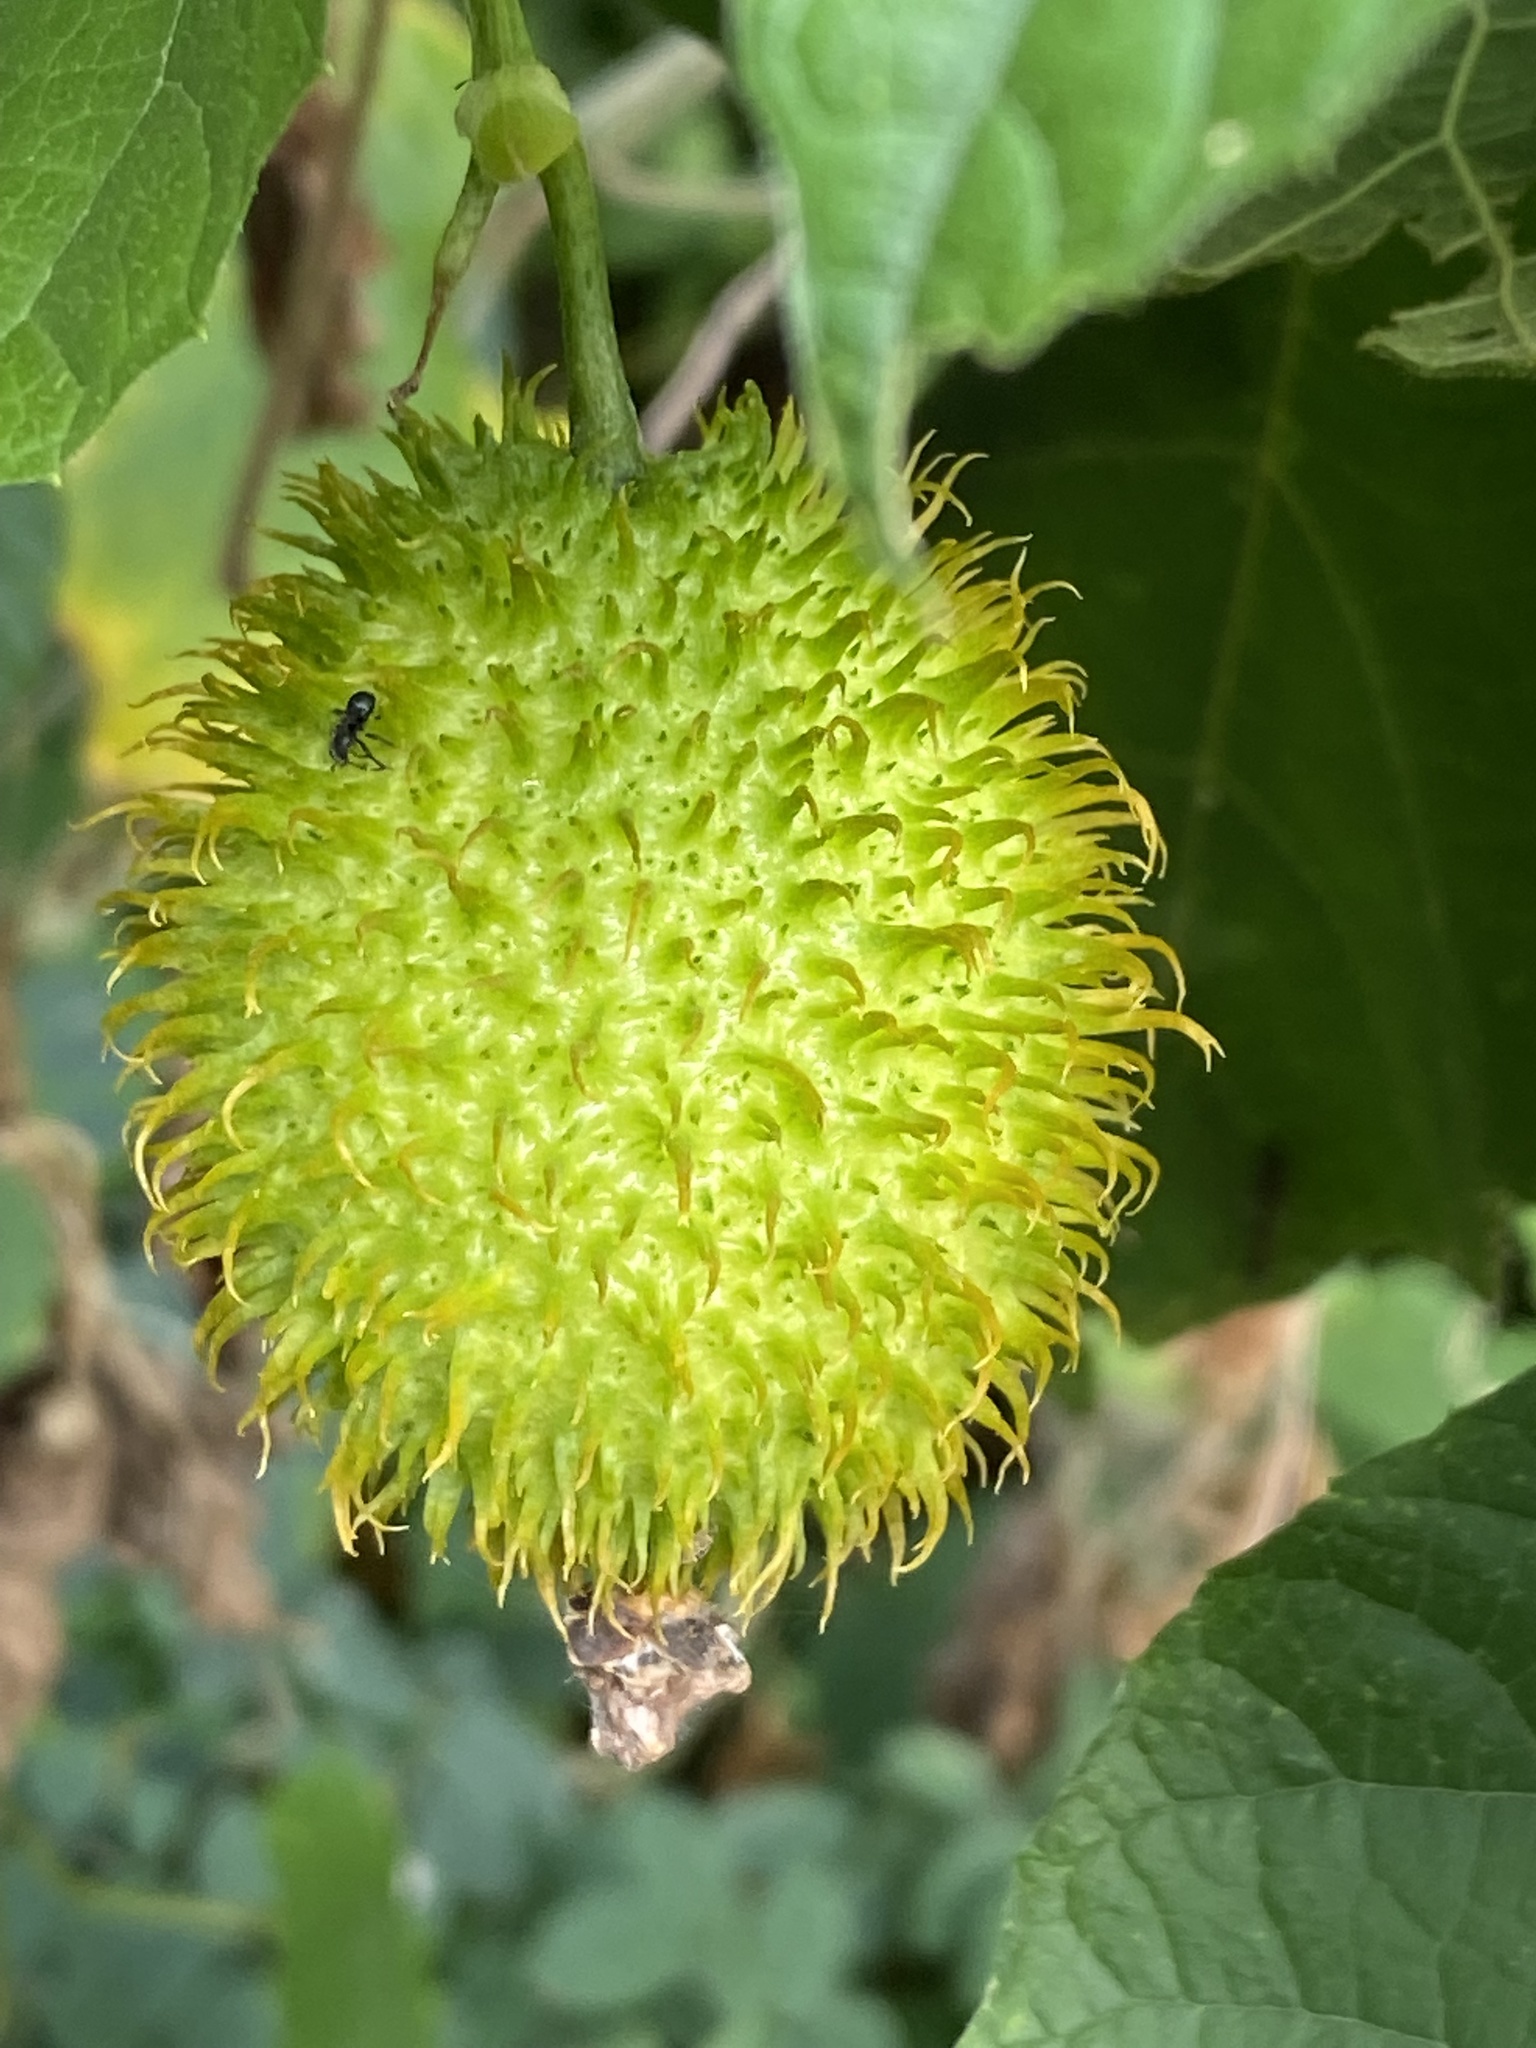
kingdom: Plantae
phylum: Tracheophyta
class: Magnoliopsida
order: Cucurbitales
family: Cucurbitaceae
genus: Momordica
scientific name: Momordica foetida
